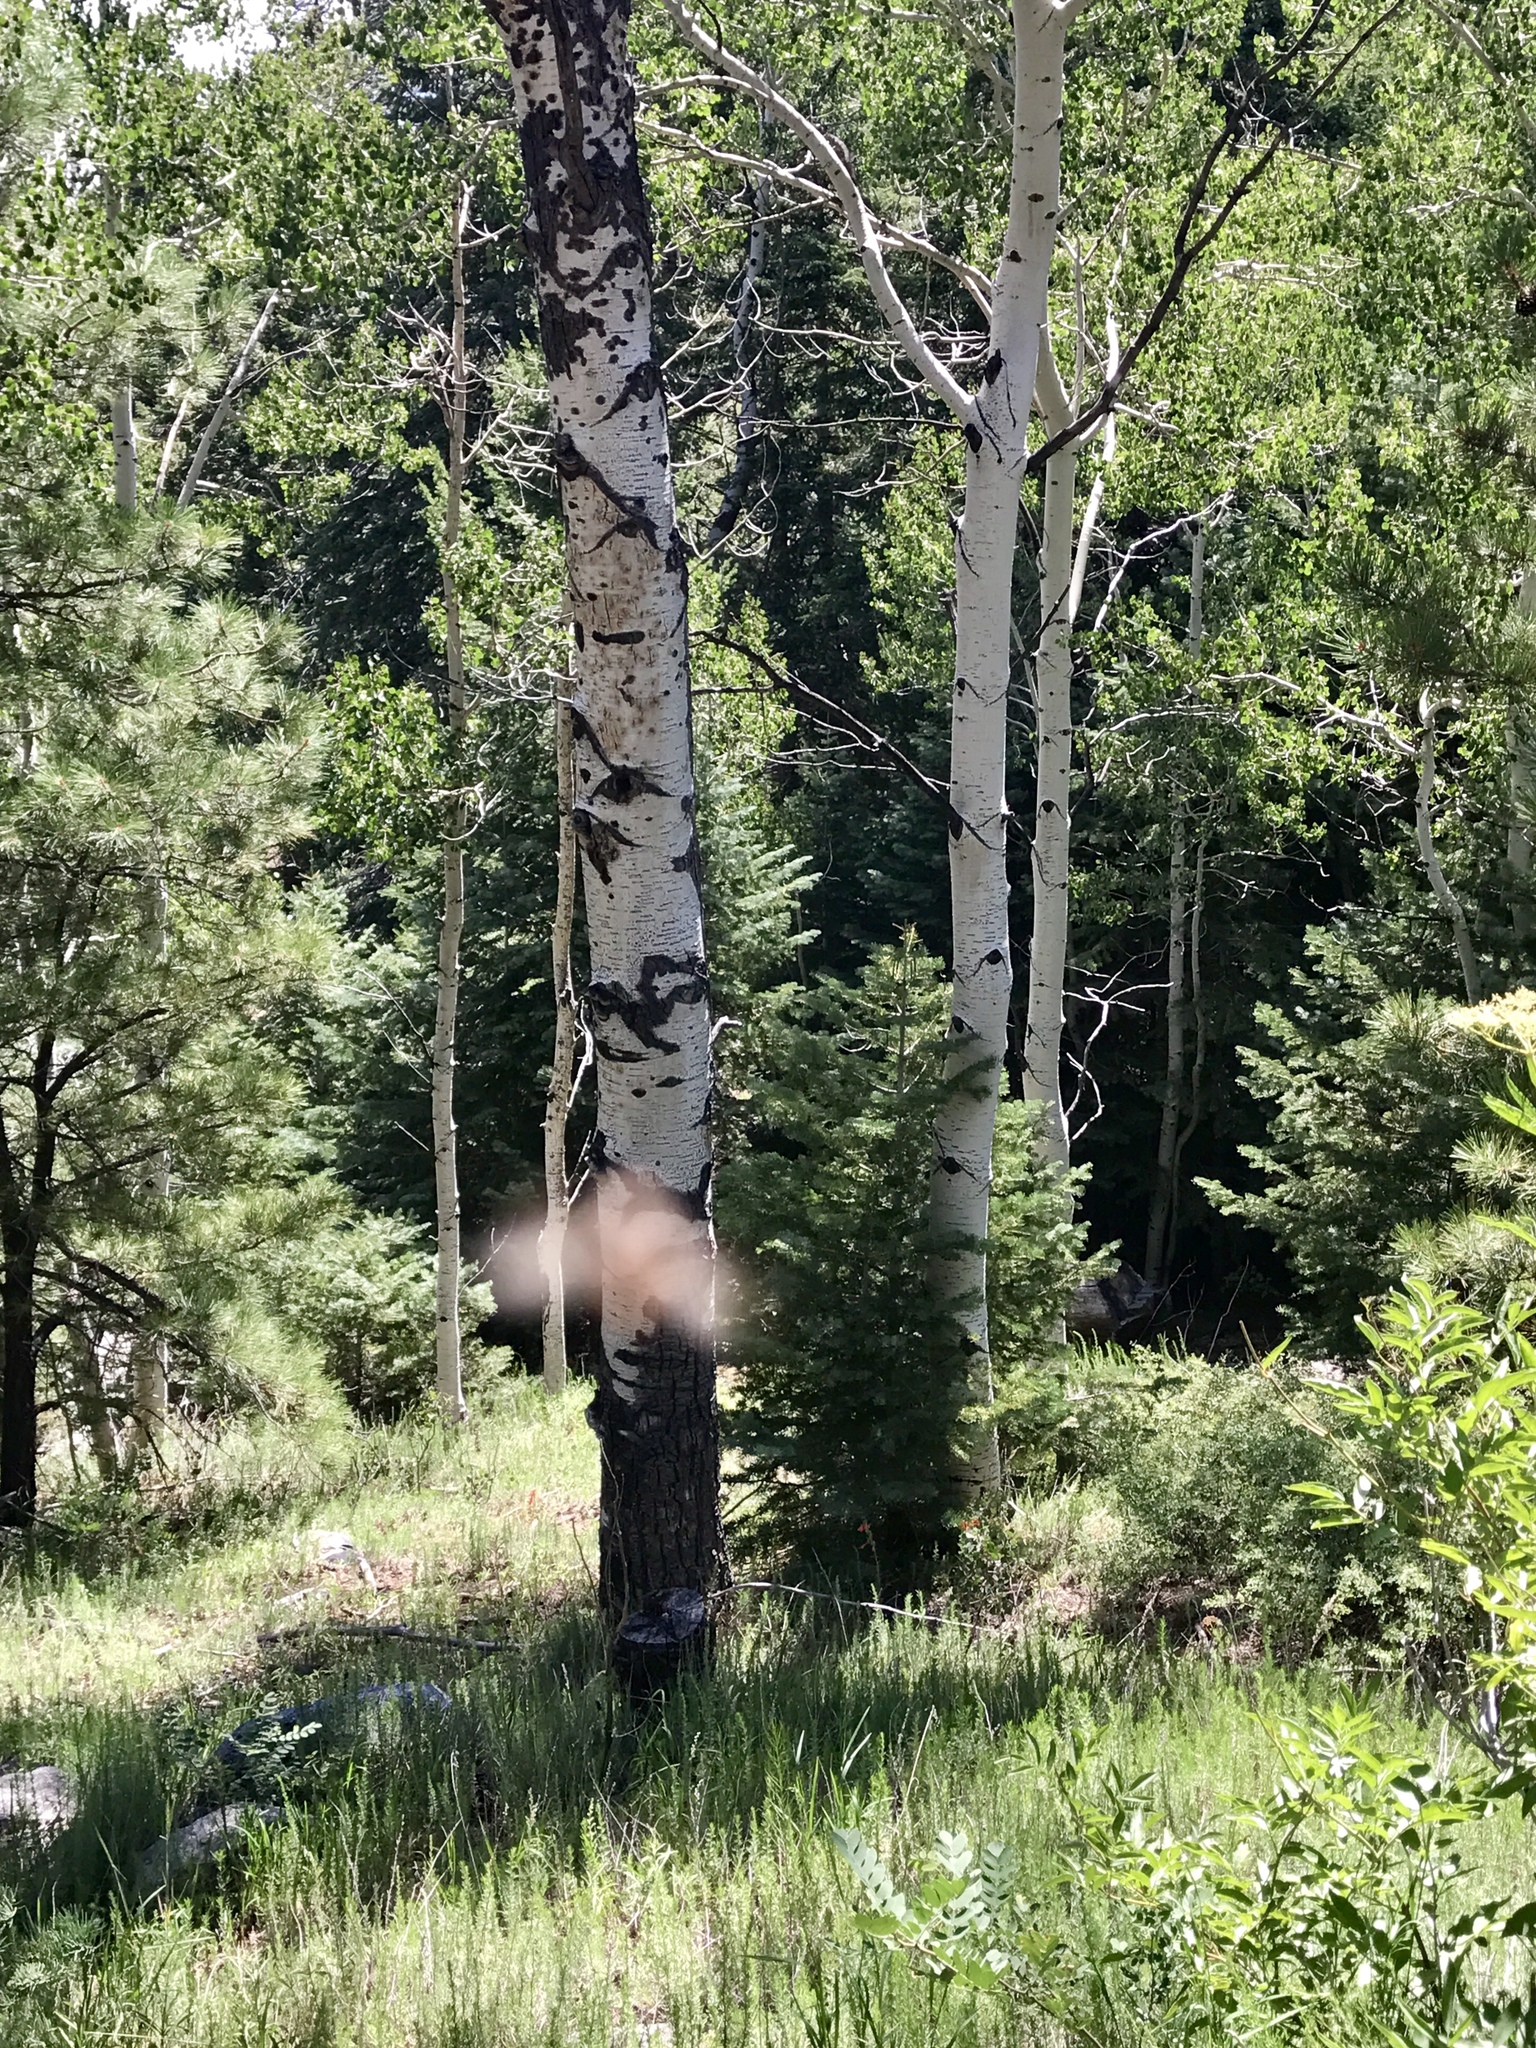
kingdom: Plantae
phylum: Tracheophyta
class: Magnoliopsida
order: Malpighiales
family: Salicaceae
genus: Populus
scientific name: Populus tremuloides
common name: Quaking aspen
